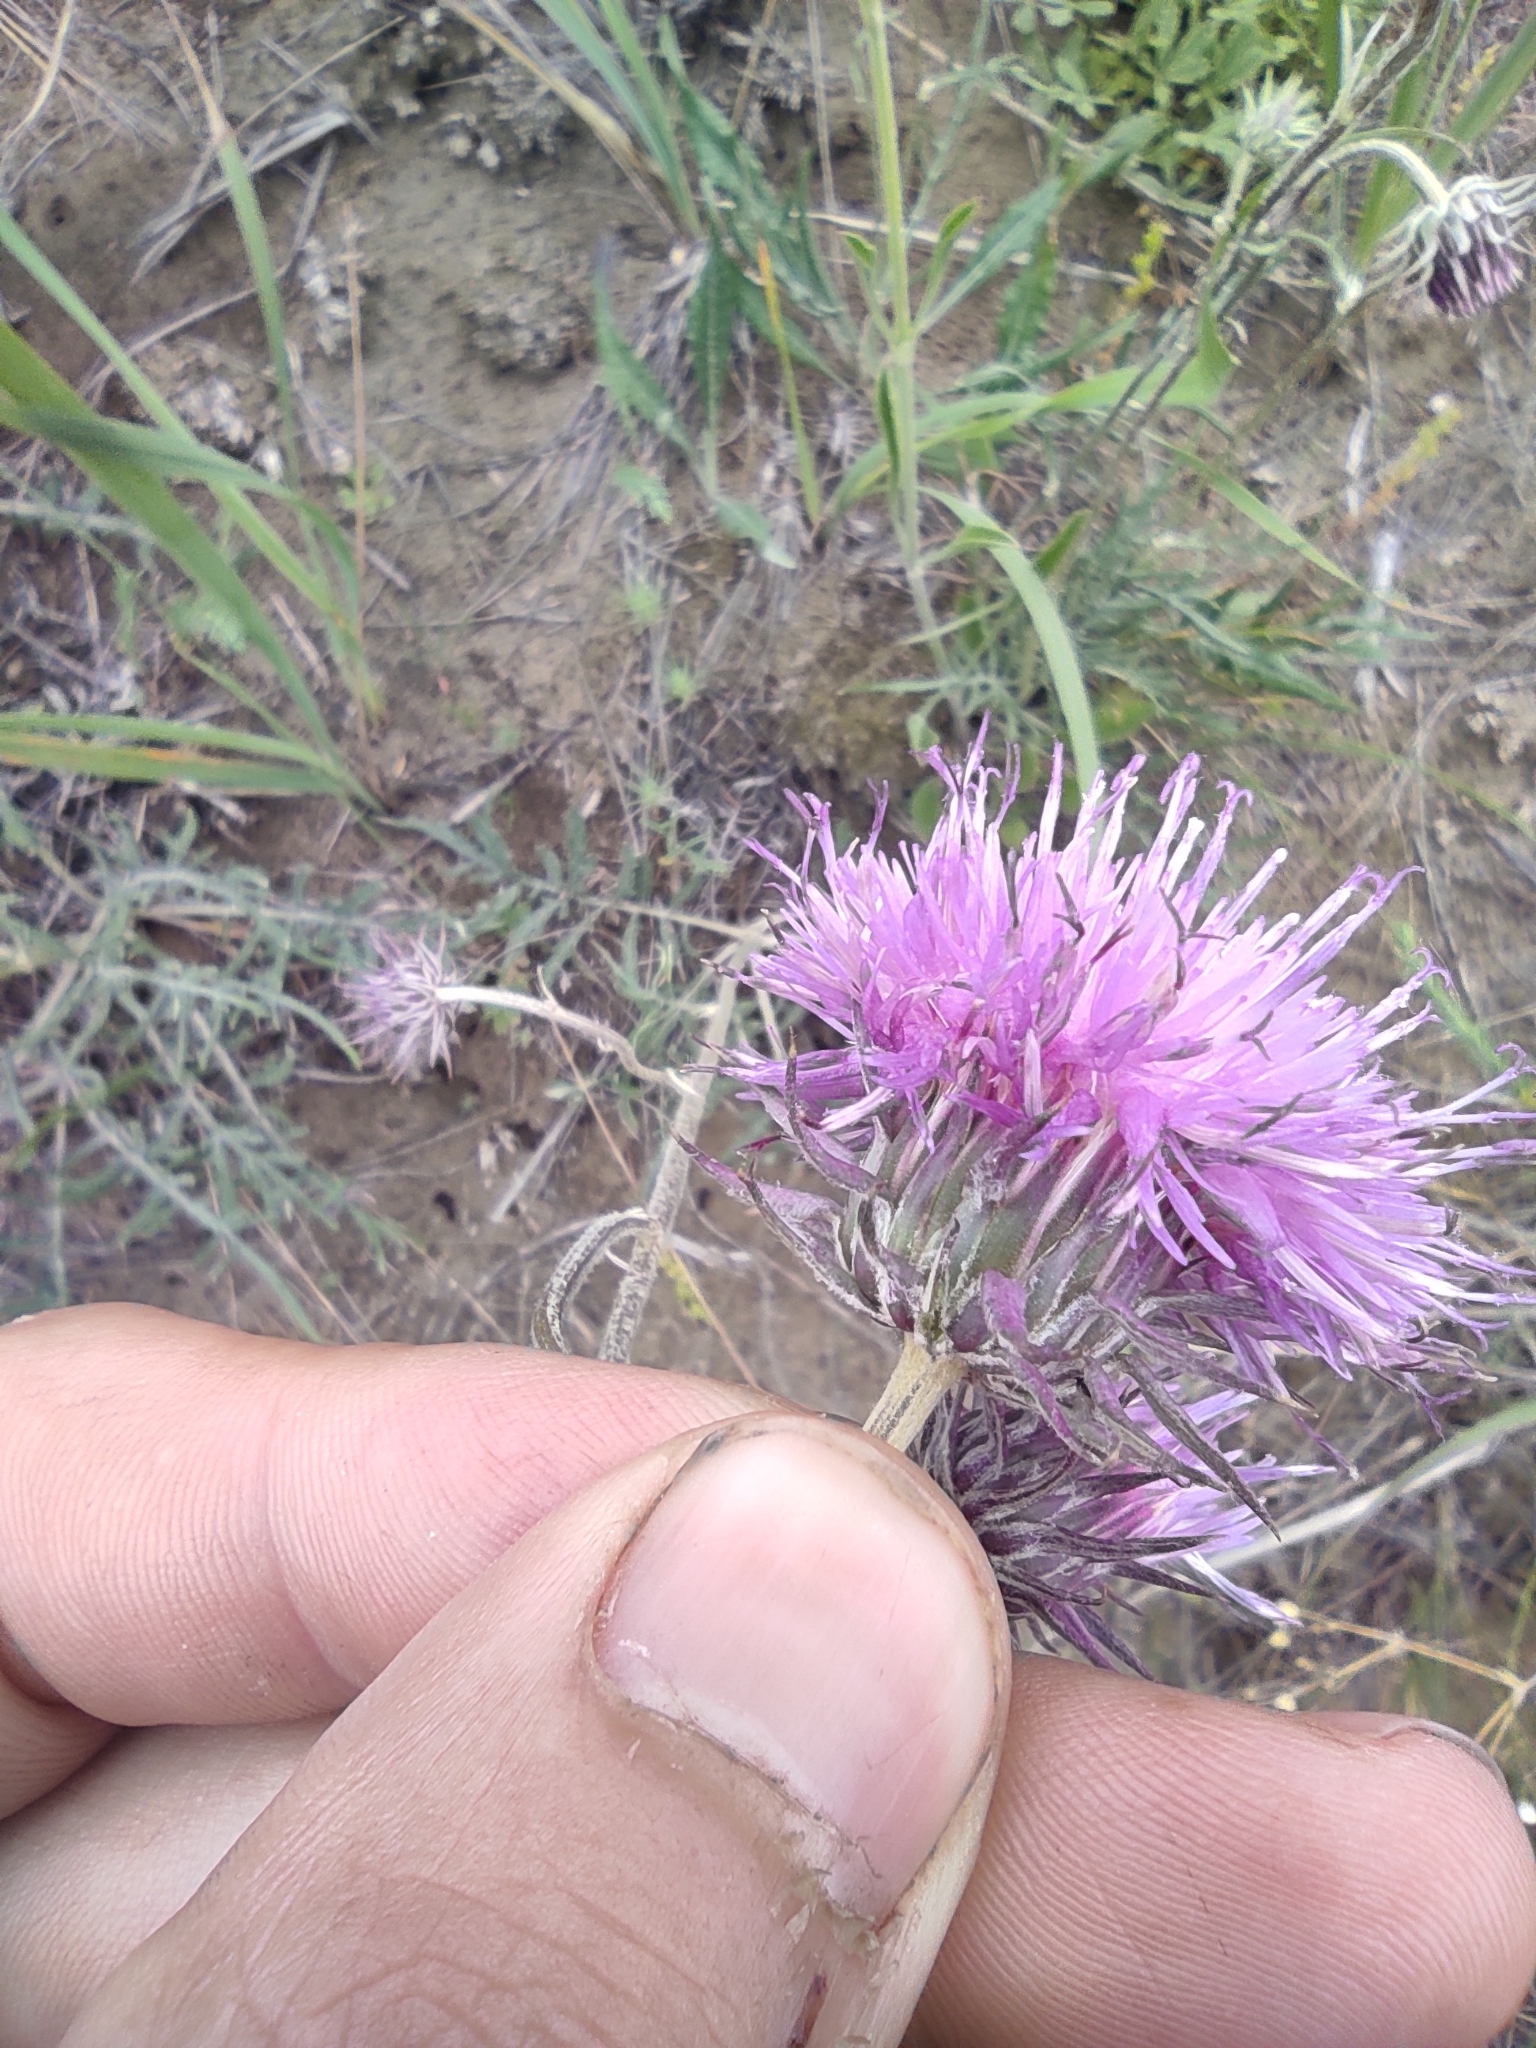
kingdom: Plantae
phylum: Tracheophyta
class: Magnoliopsida
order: Asterales
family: Asteraceae
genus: Jurinea
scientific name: Jurinea cyanoides
